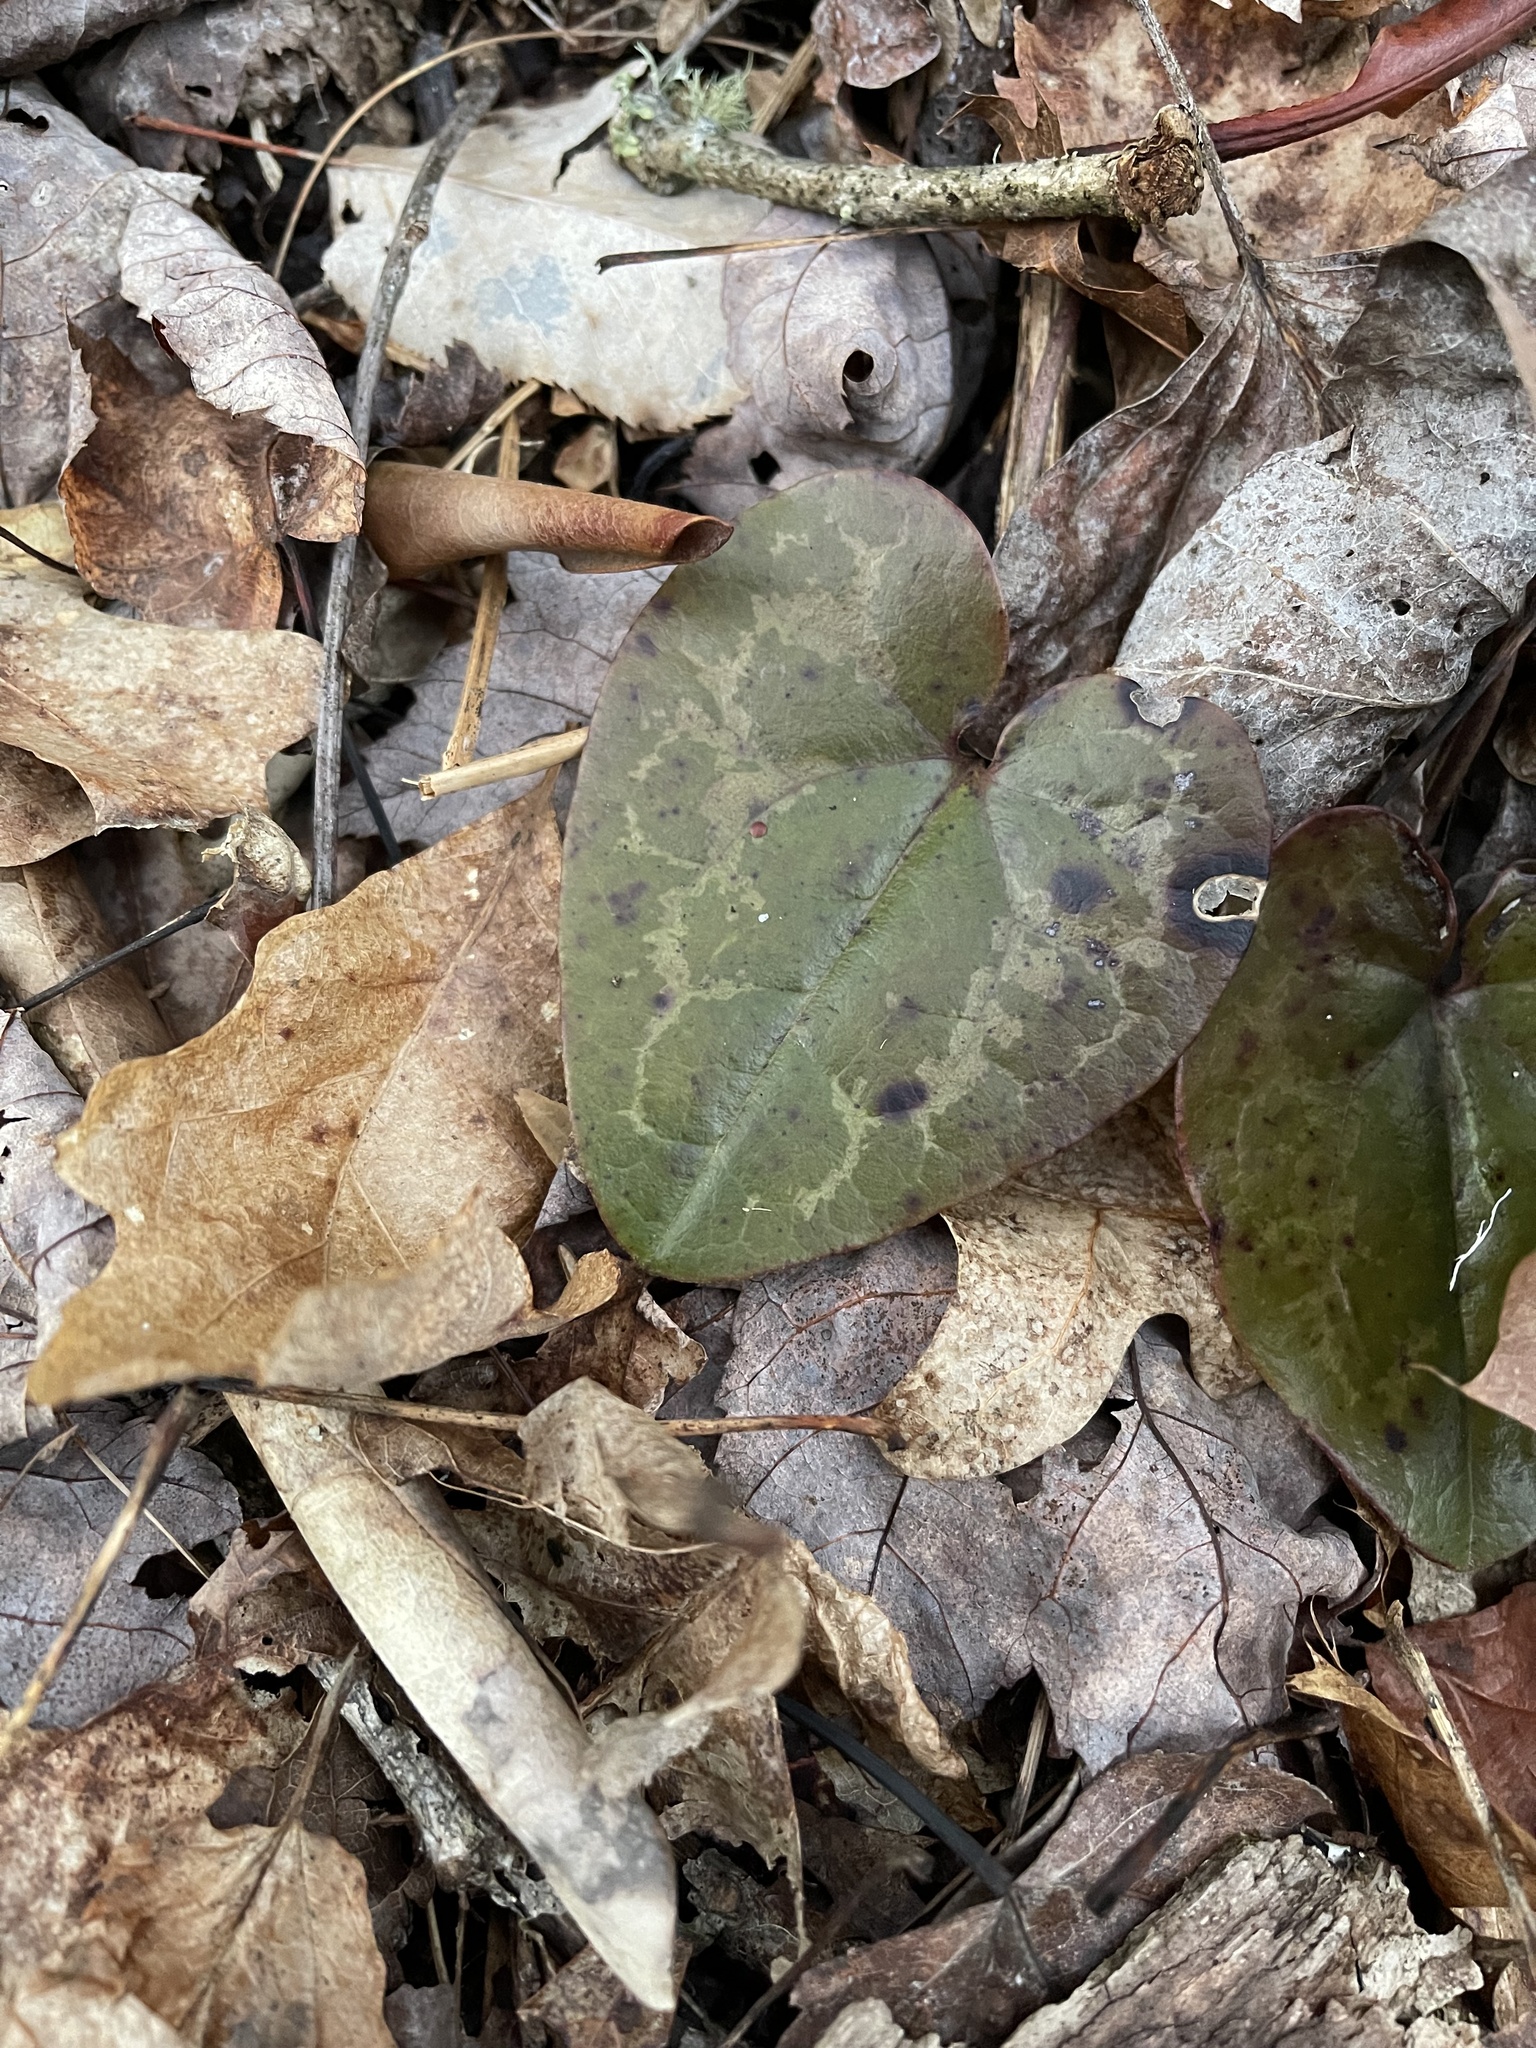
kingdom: Plantae
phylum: Tracheophyta
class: Magnoliopsida
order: Piperales
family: Aristolochiaceae
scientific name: Aristolochiaceae
